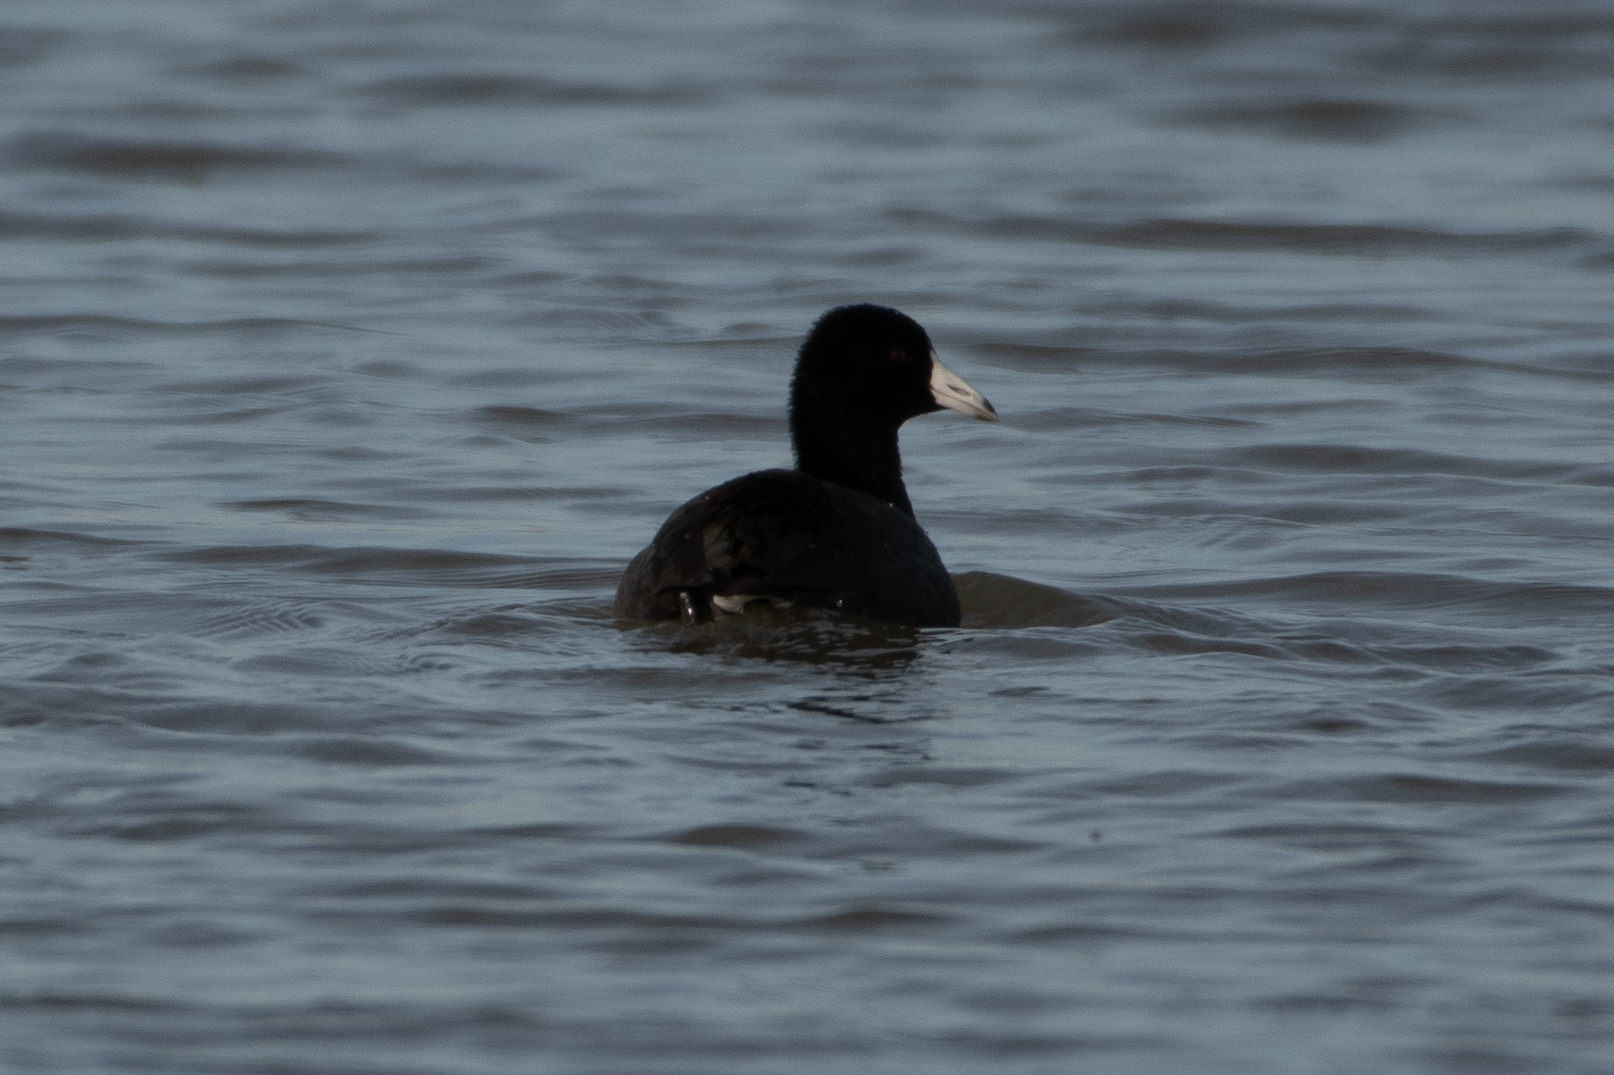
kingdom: Animalia
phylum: Chordata
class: Aves
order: Gruiformes
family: Rallidae
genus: Fulica
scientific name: Fulica americana
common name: American coot
